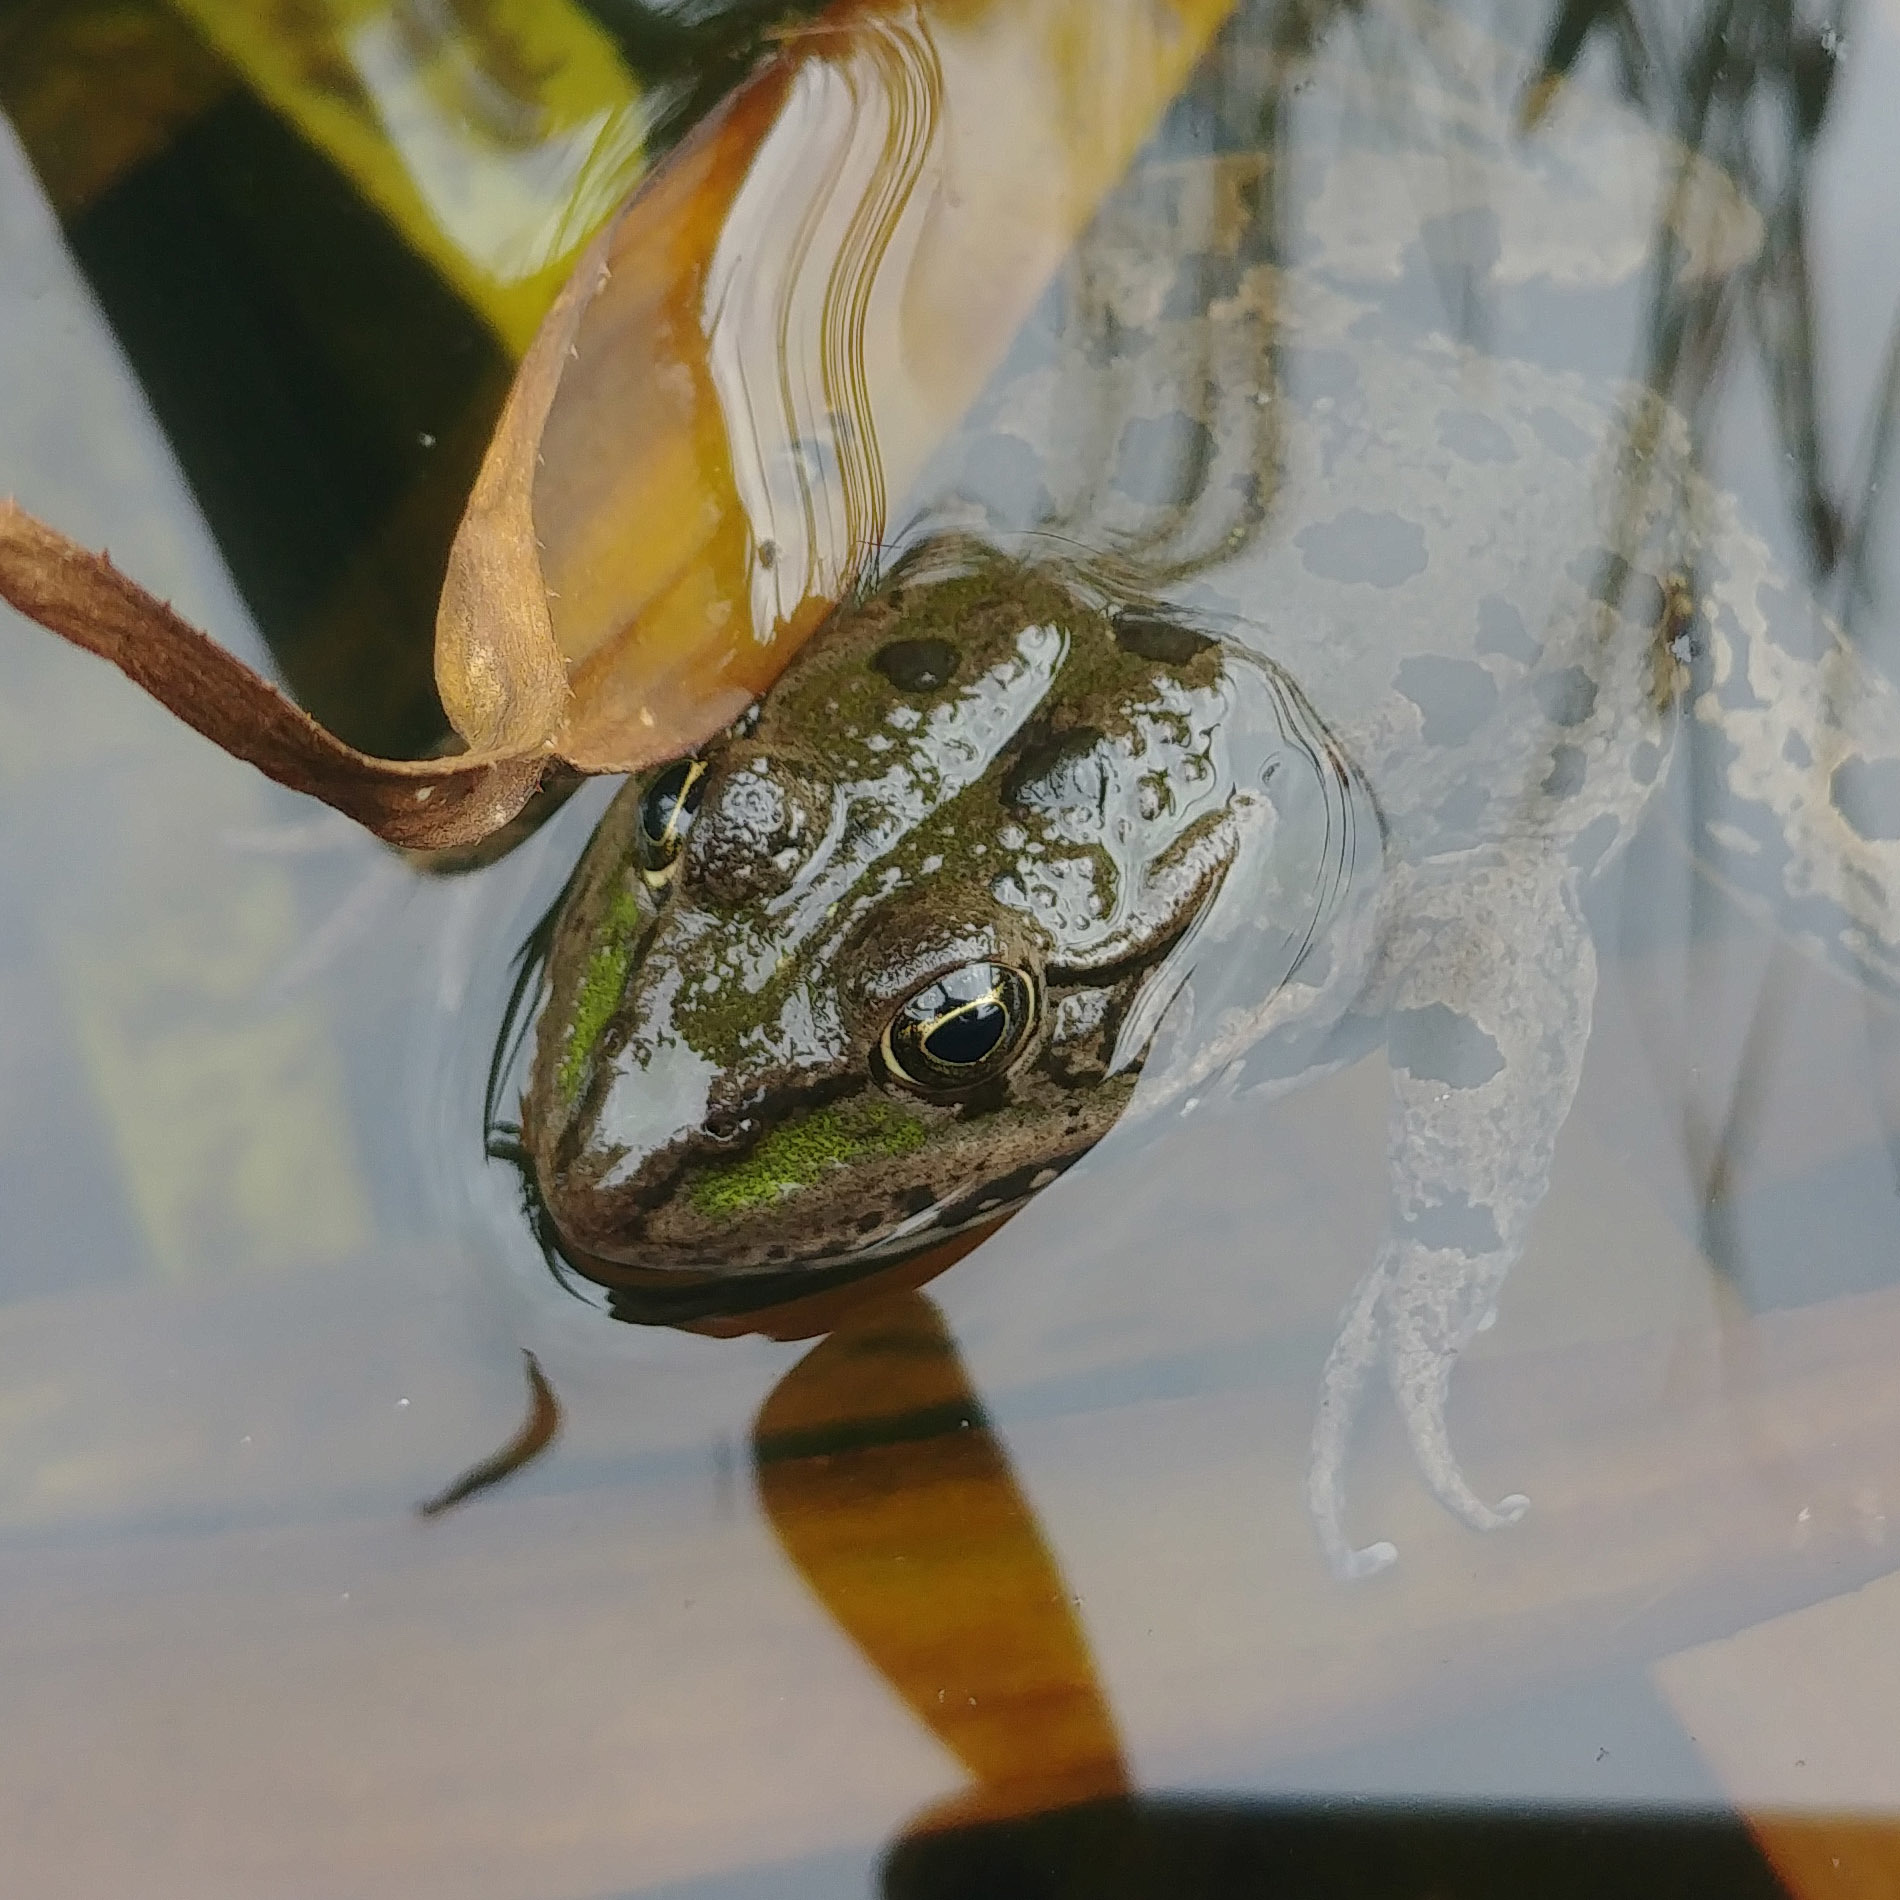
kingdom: Animalia
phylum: Chordata
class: Amphibia
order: Anura
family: Ranidae
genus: Pelophylax
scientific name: Pelophylax ridibundus
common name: Marsh frog
